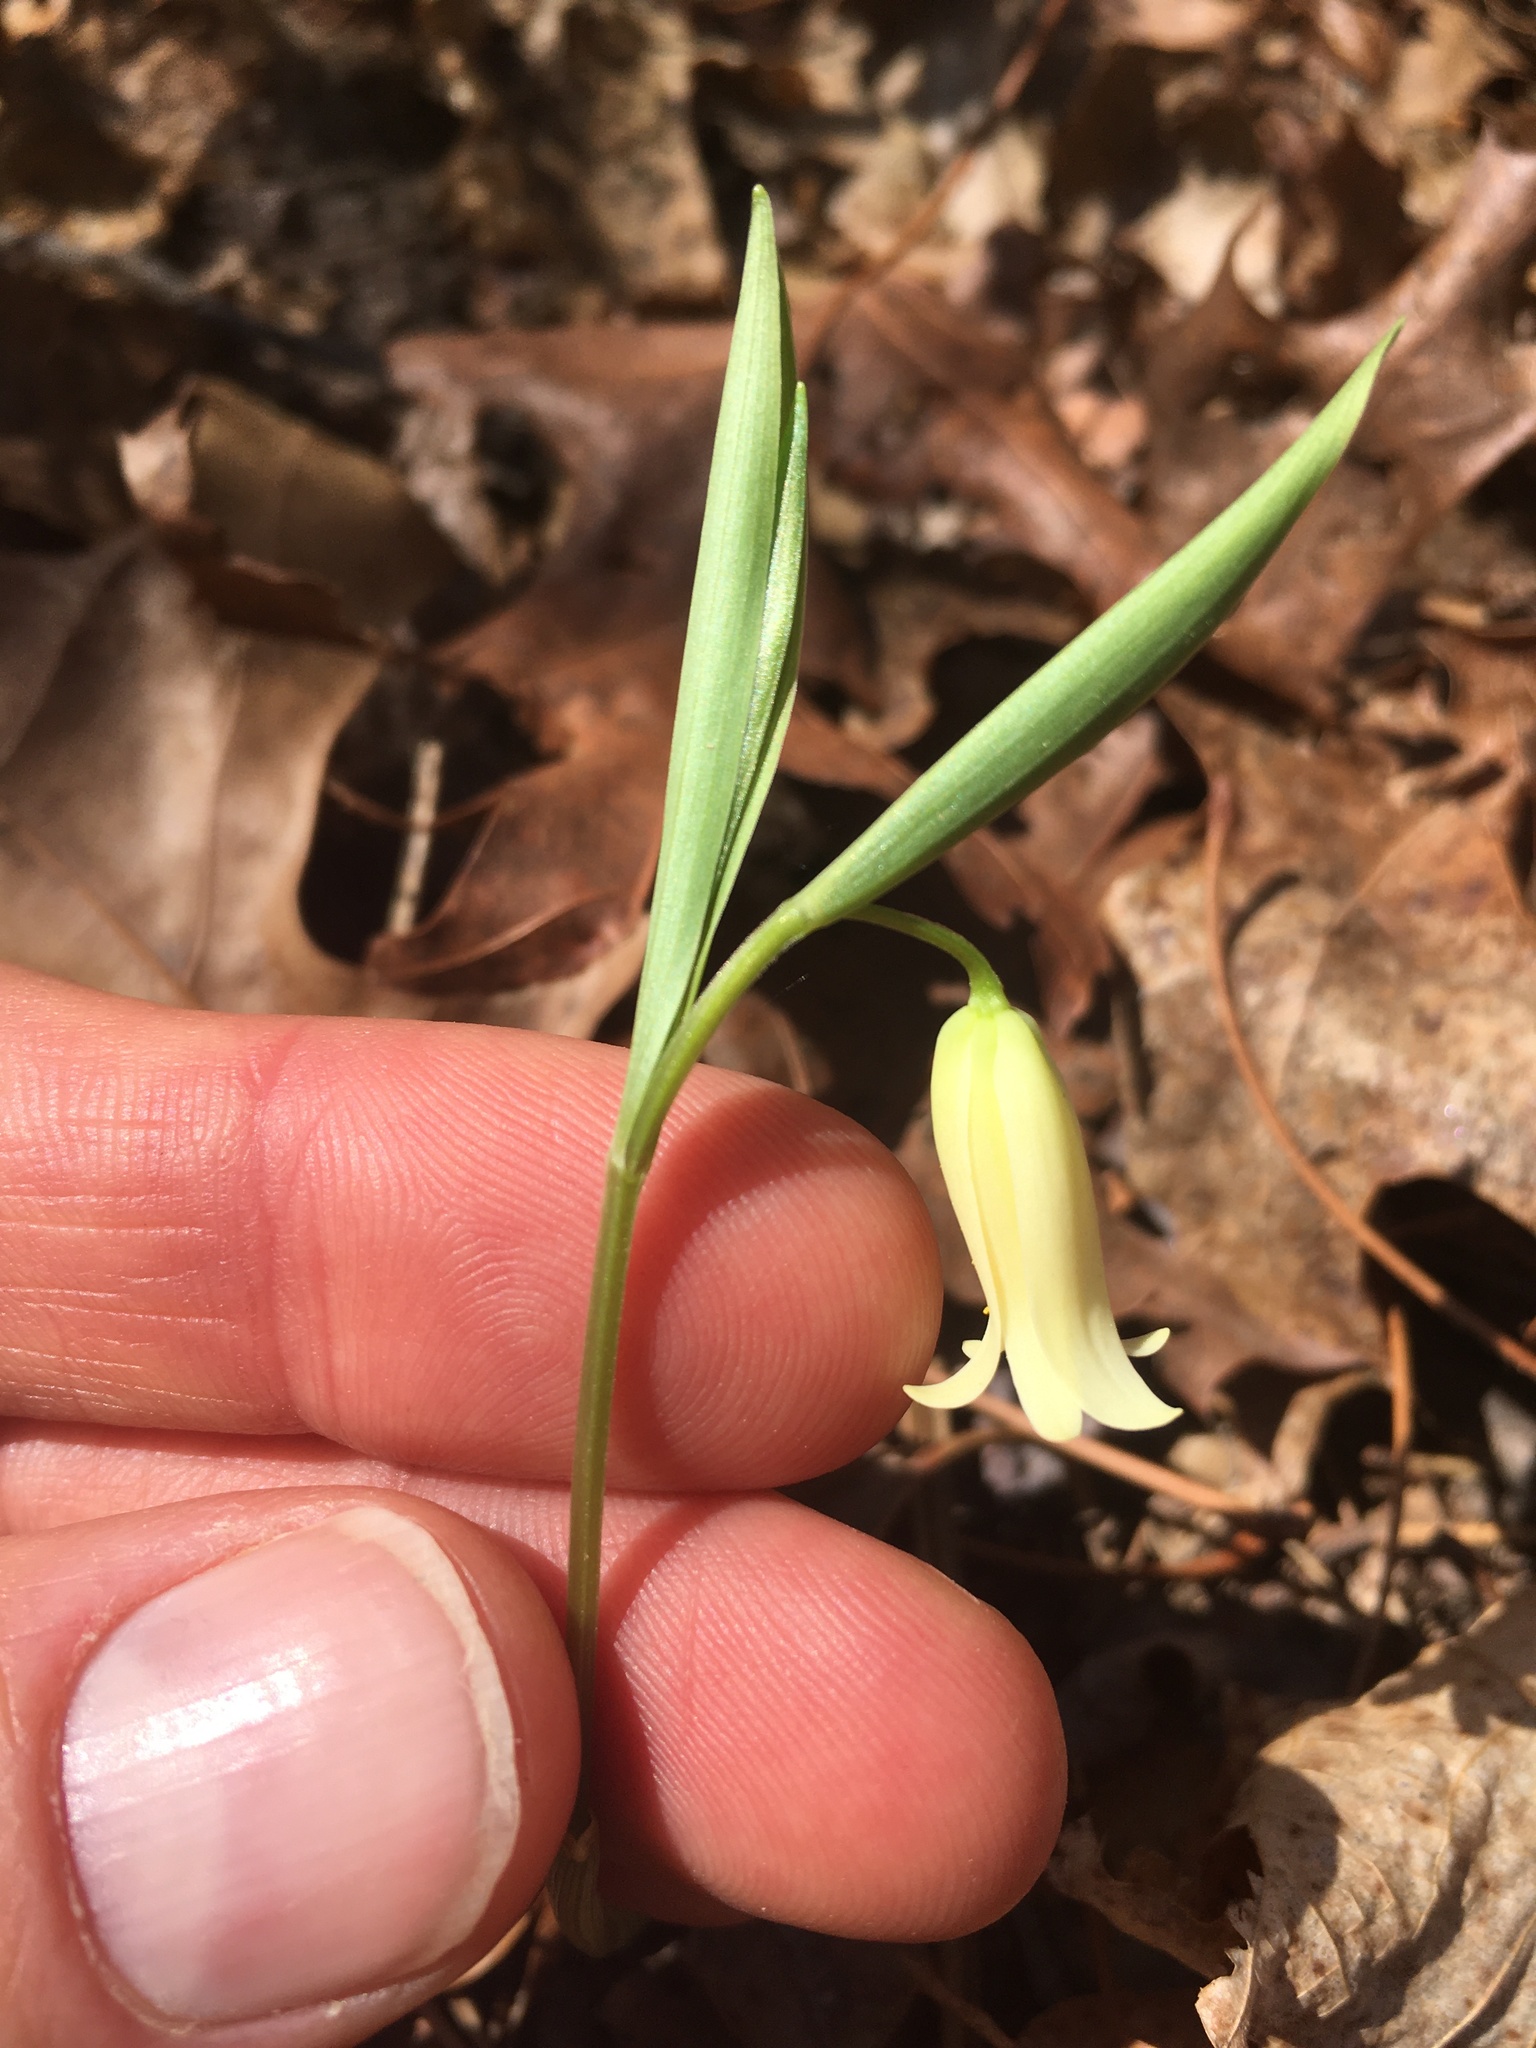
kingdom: Plantae
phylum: Tracheophyta
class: Liliopsida
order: Liliales
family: Colchicaceae
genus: Uvularia
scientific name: Uvularia puberula
